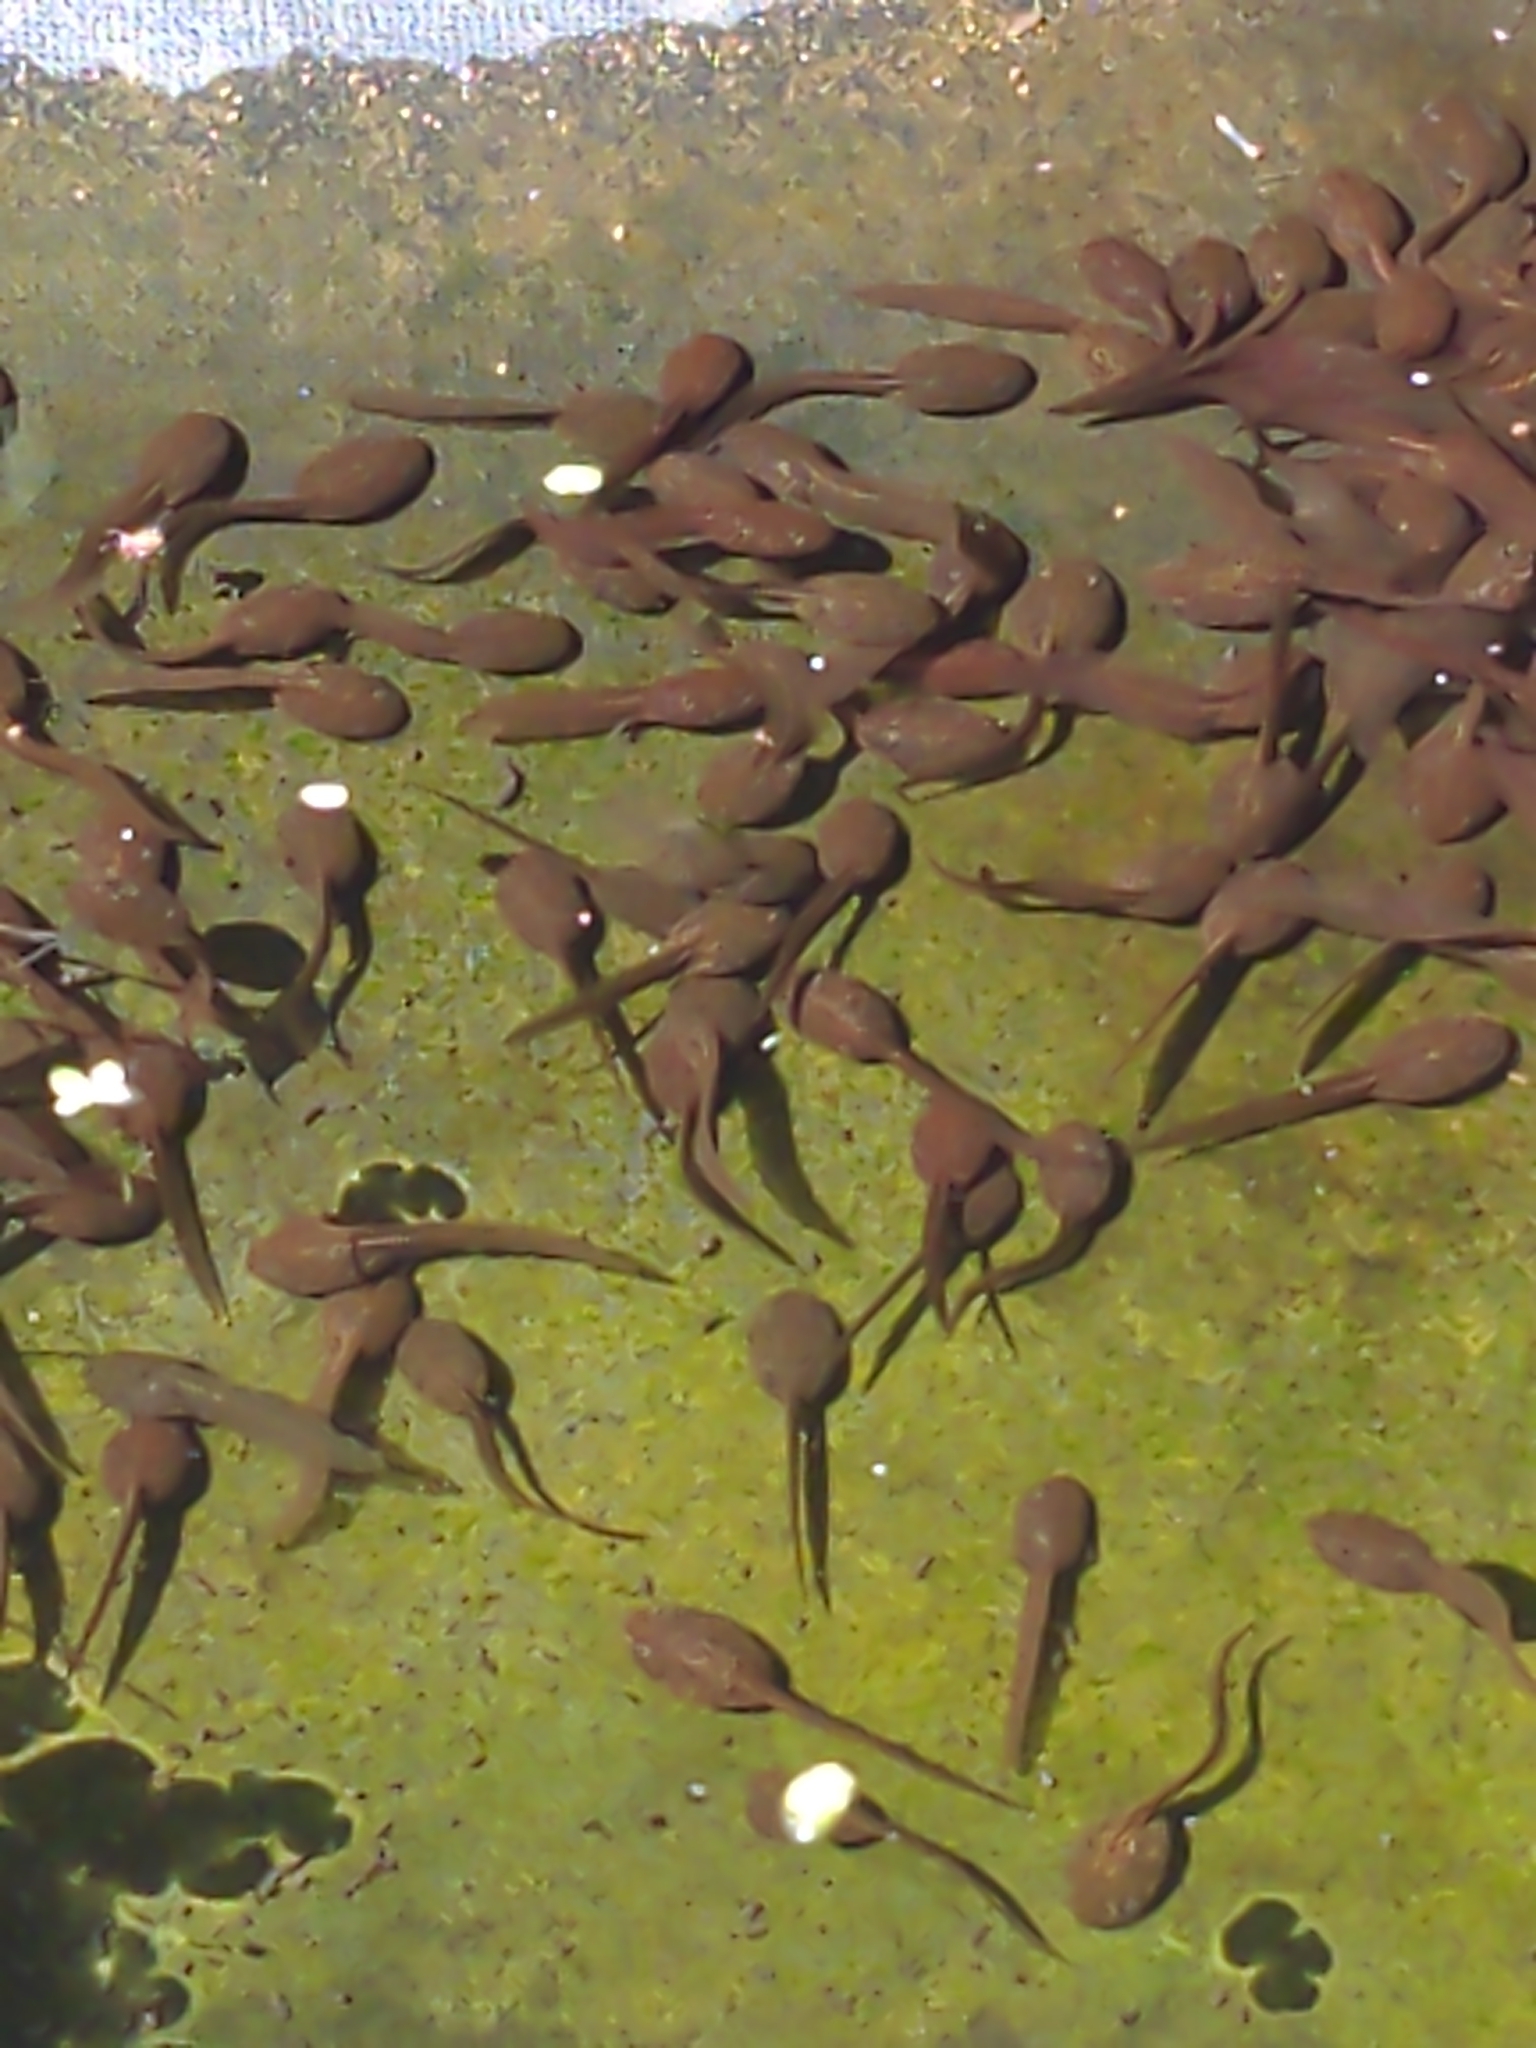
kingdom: Animalia
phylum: Chordata
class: Amphibia
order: Anura
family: Ranidae
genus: Rana
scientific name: Rana temporaria
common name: Common frog
